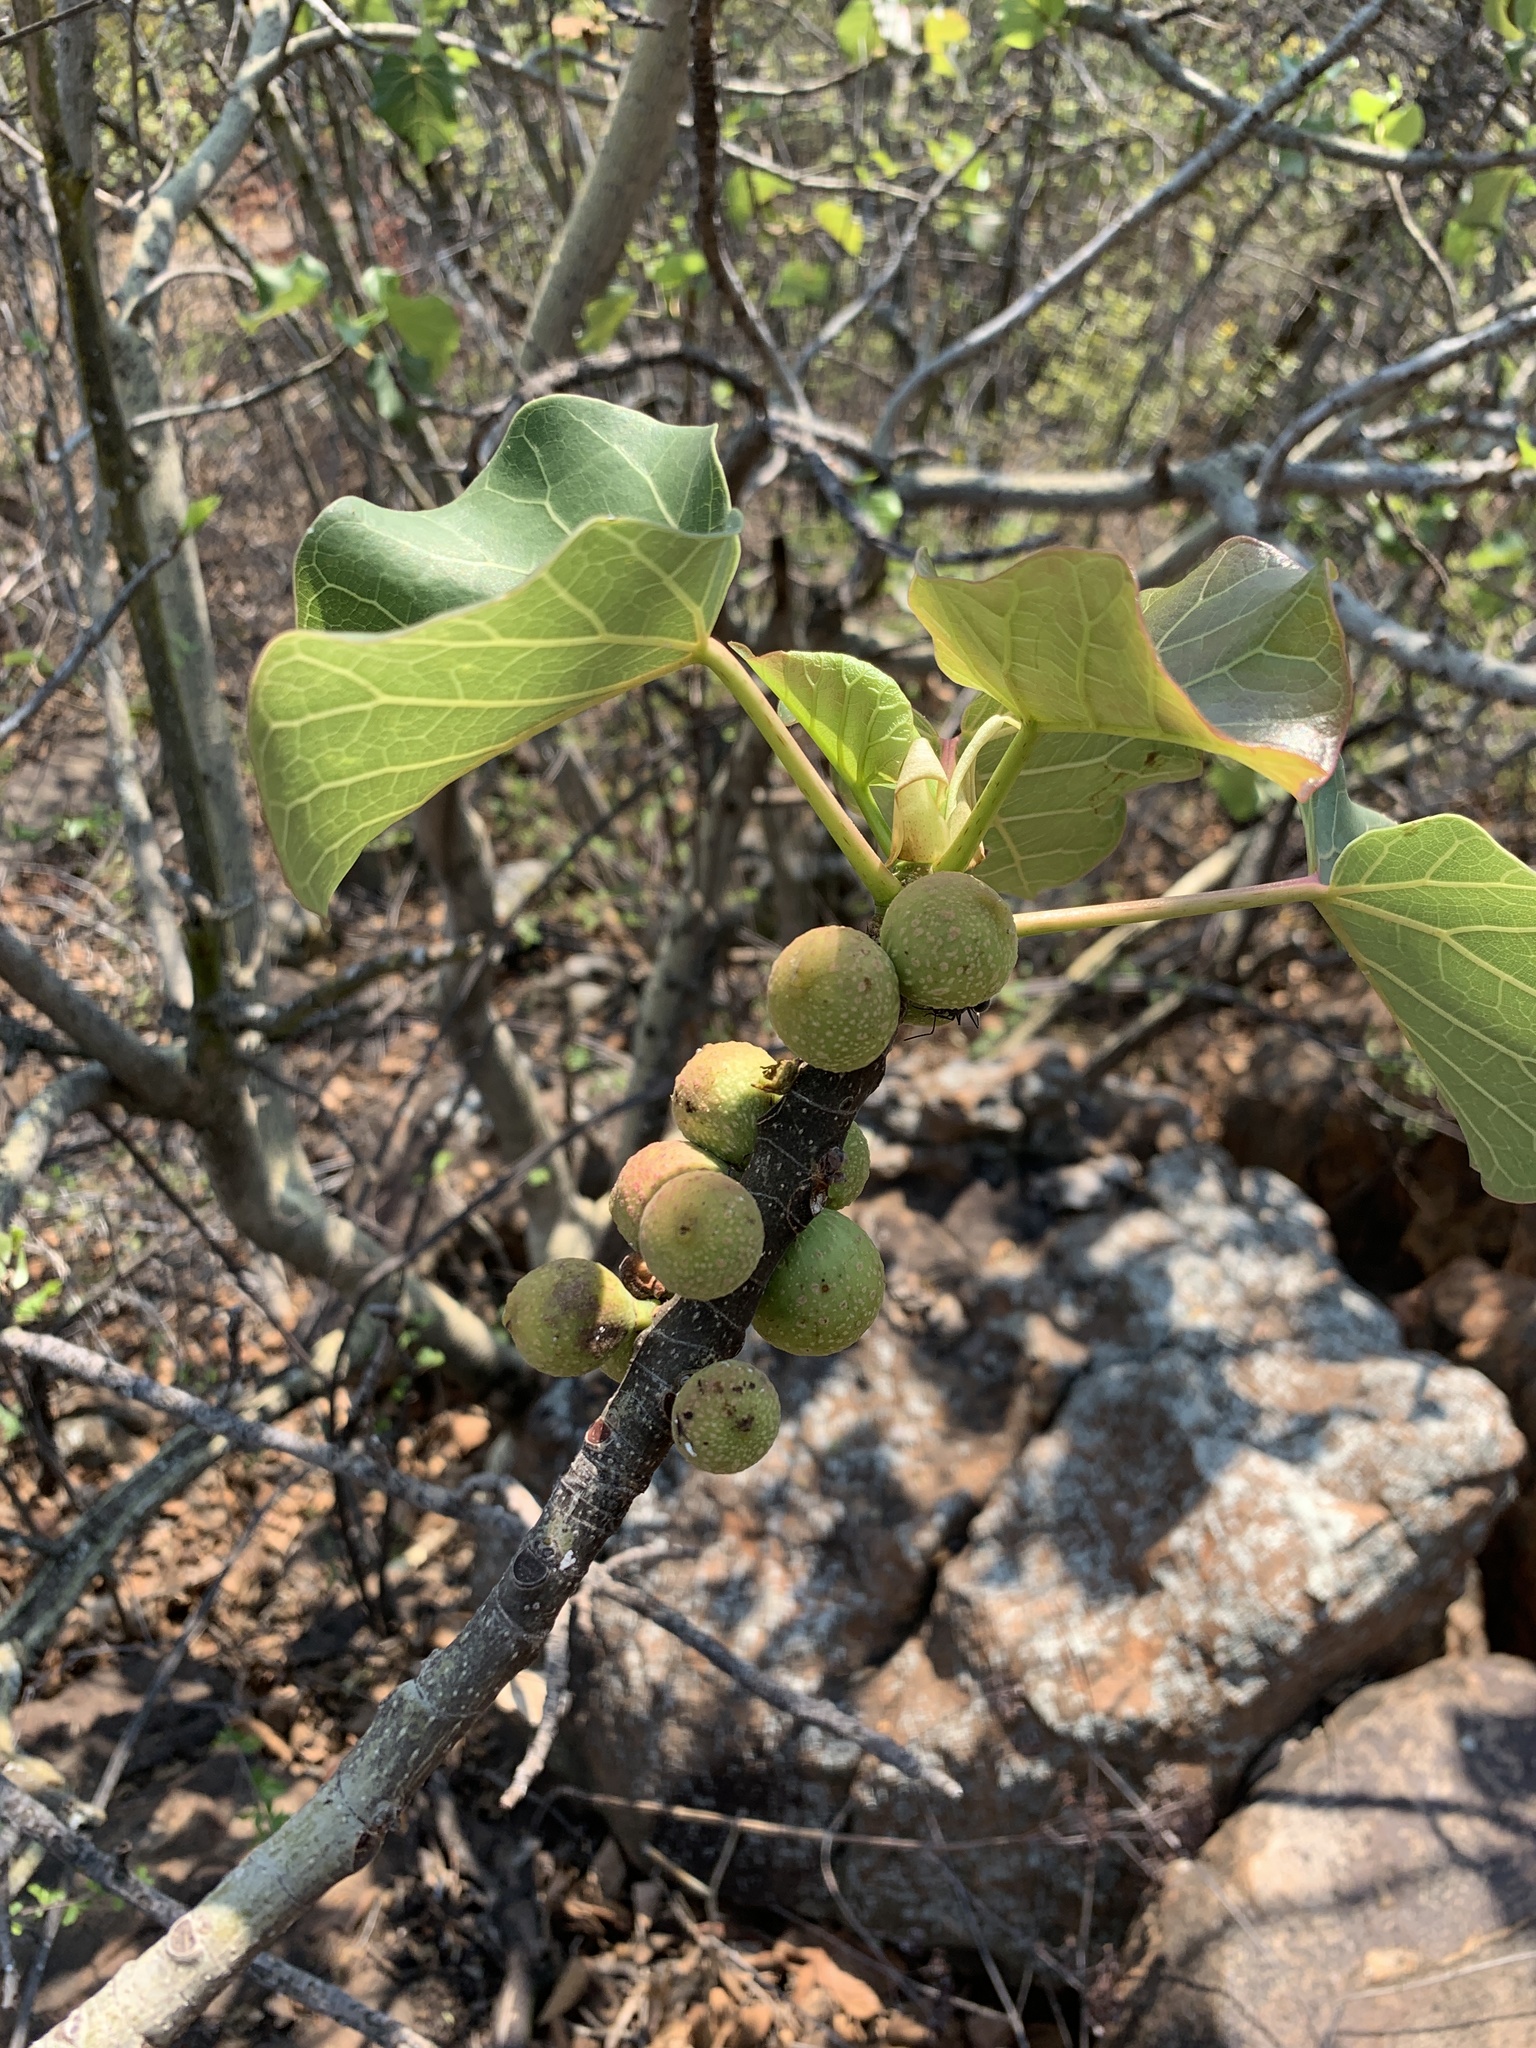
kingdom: Plantae
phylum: Tracheophyta
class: Magnoliopsida
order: Rosales
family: Moraceae
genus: Ficus
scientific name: Ficus abutilifolia
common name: Large-leaved rock fig
